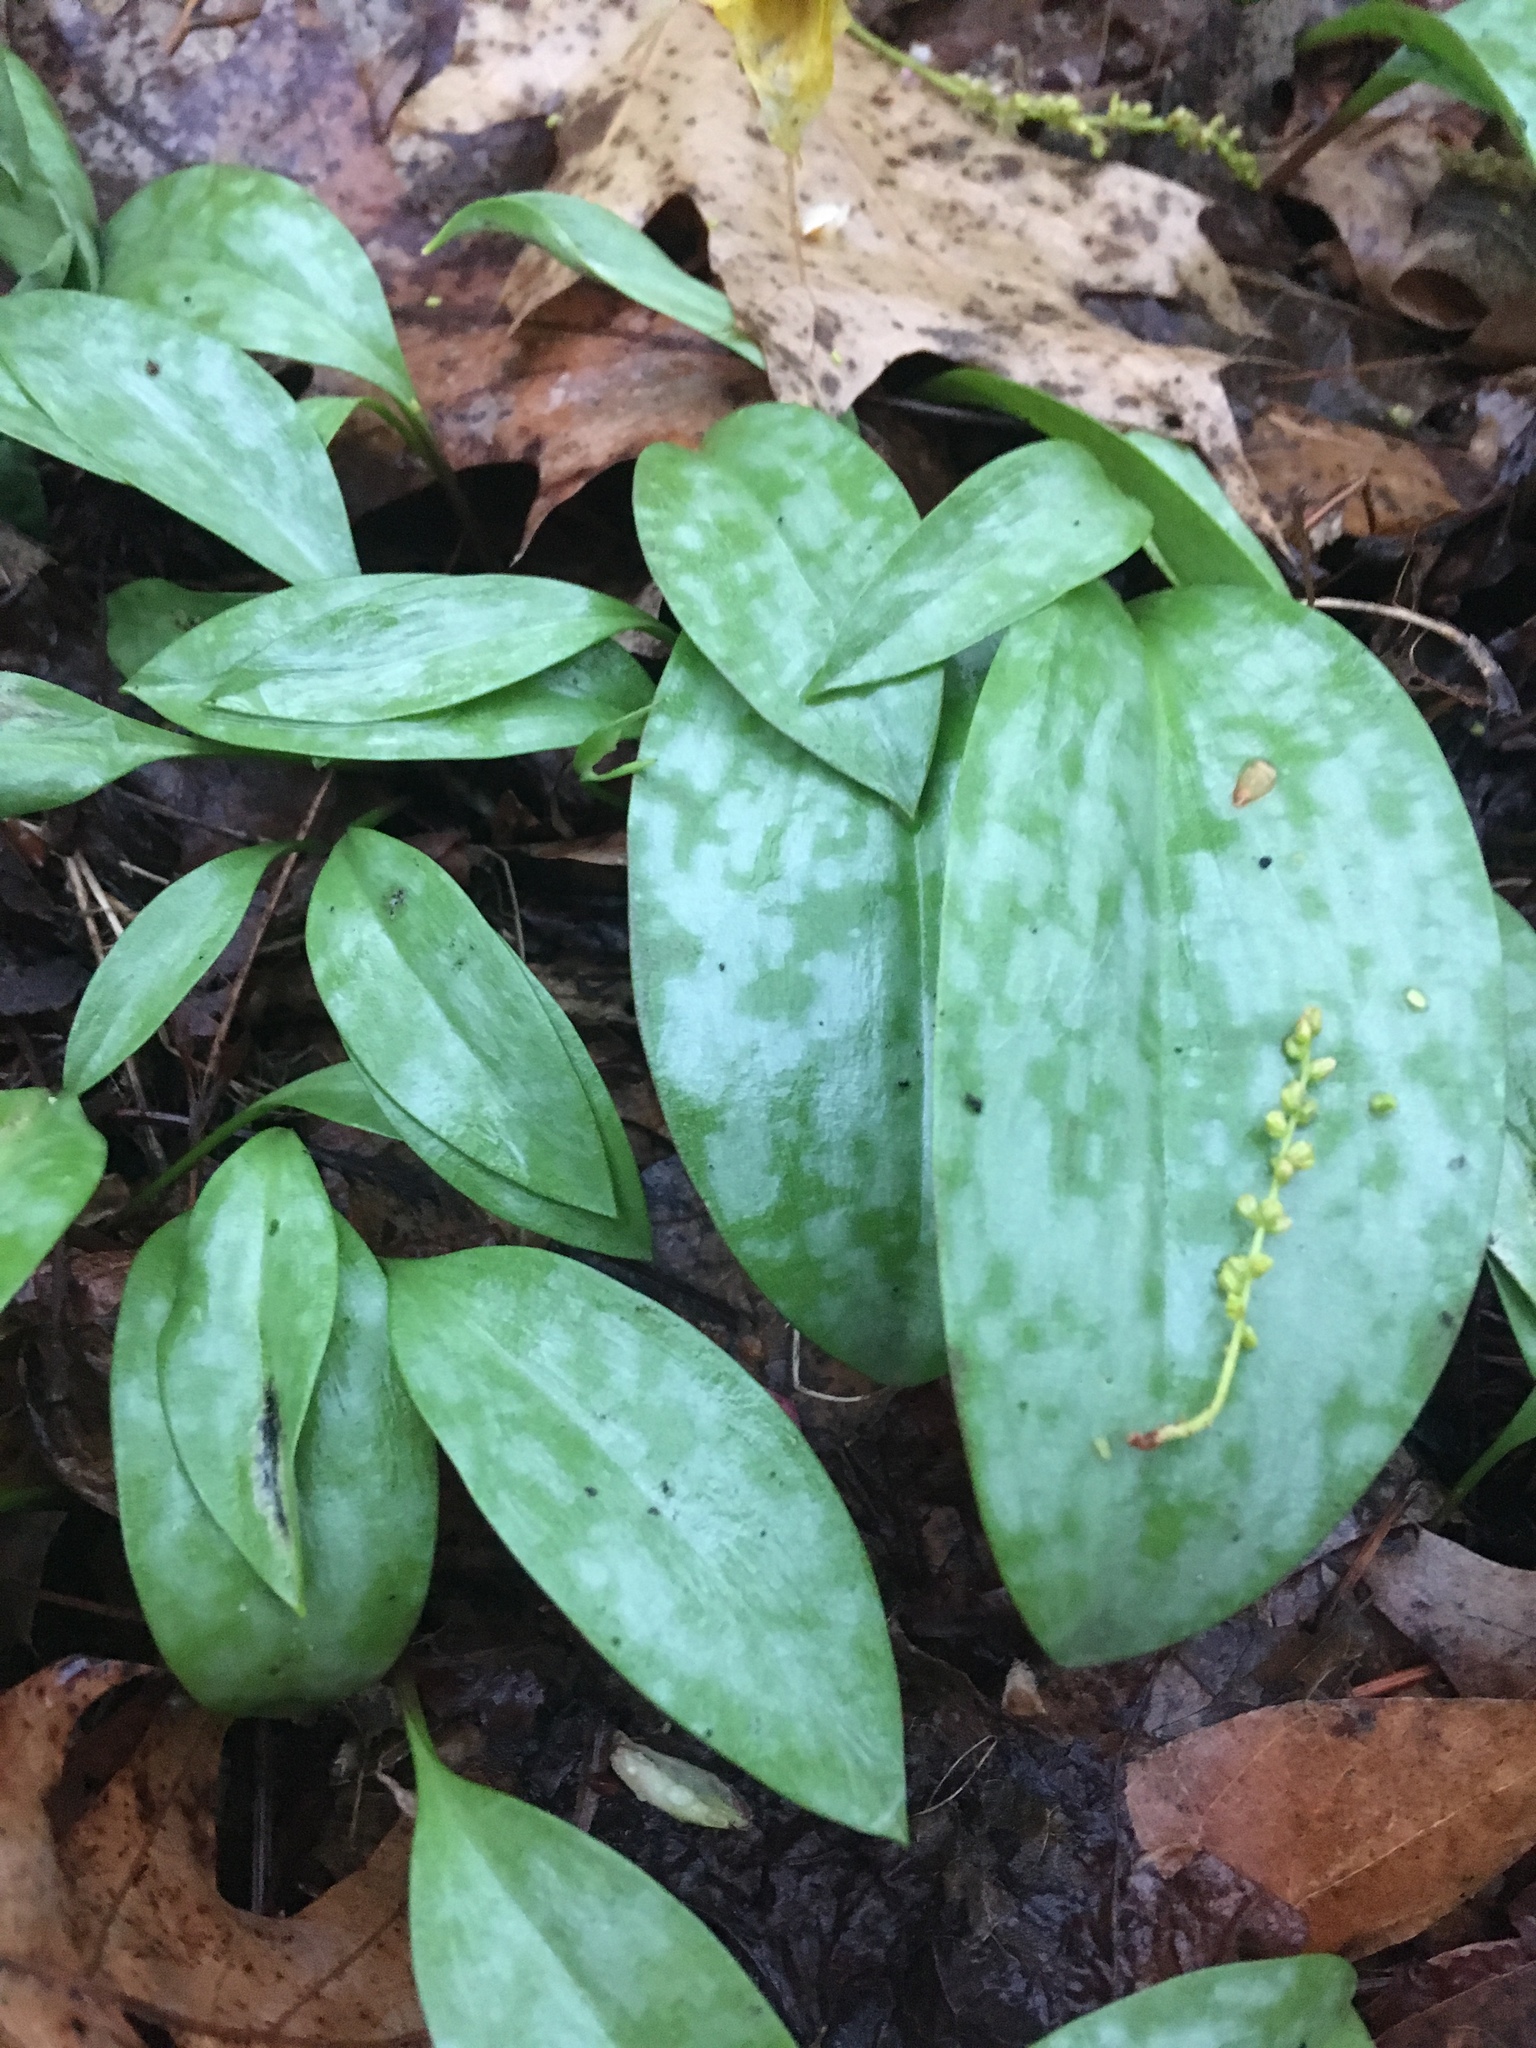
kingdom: Plantae
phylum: Tracheophyta
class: Liliopsida
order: Liliales
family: Liliaceae
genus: Erythronium
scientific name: Erythronium americanum
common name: Yellow adder's-tongue
